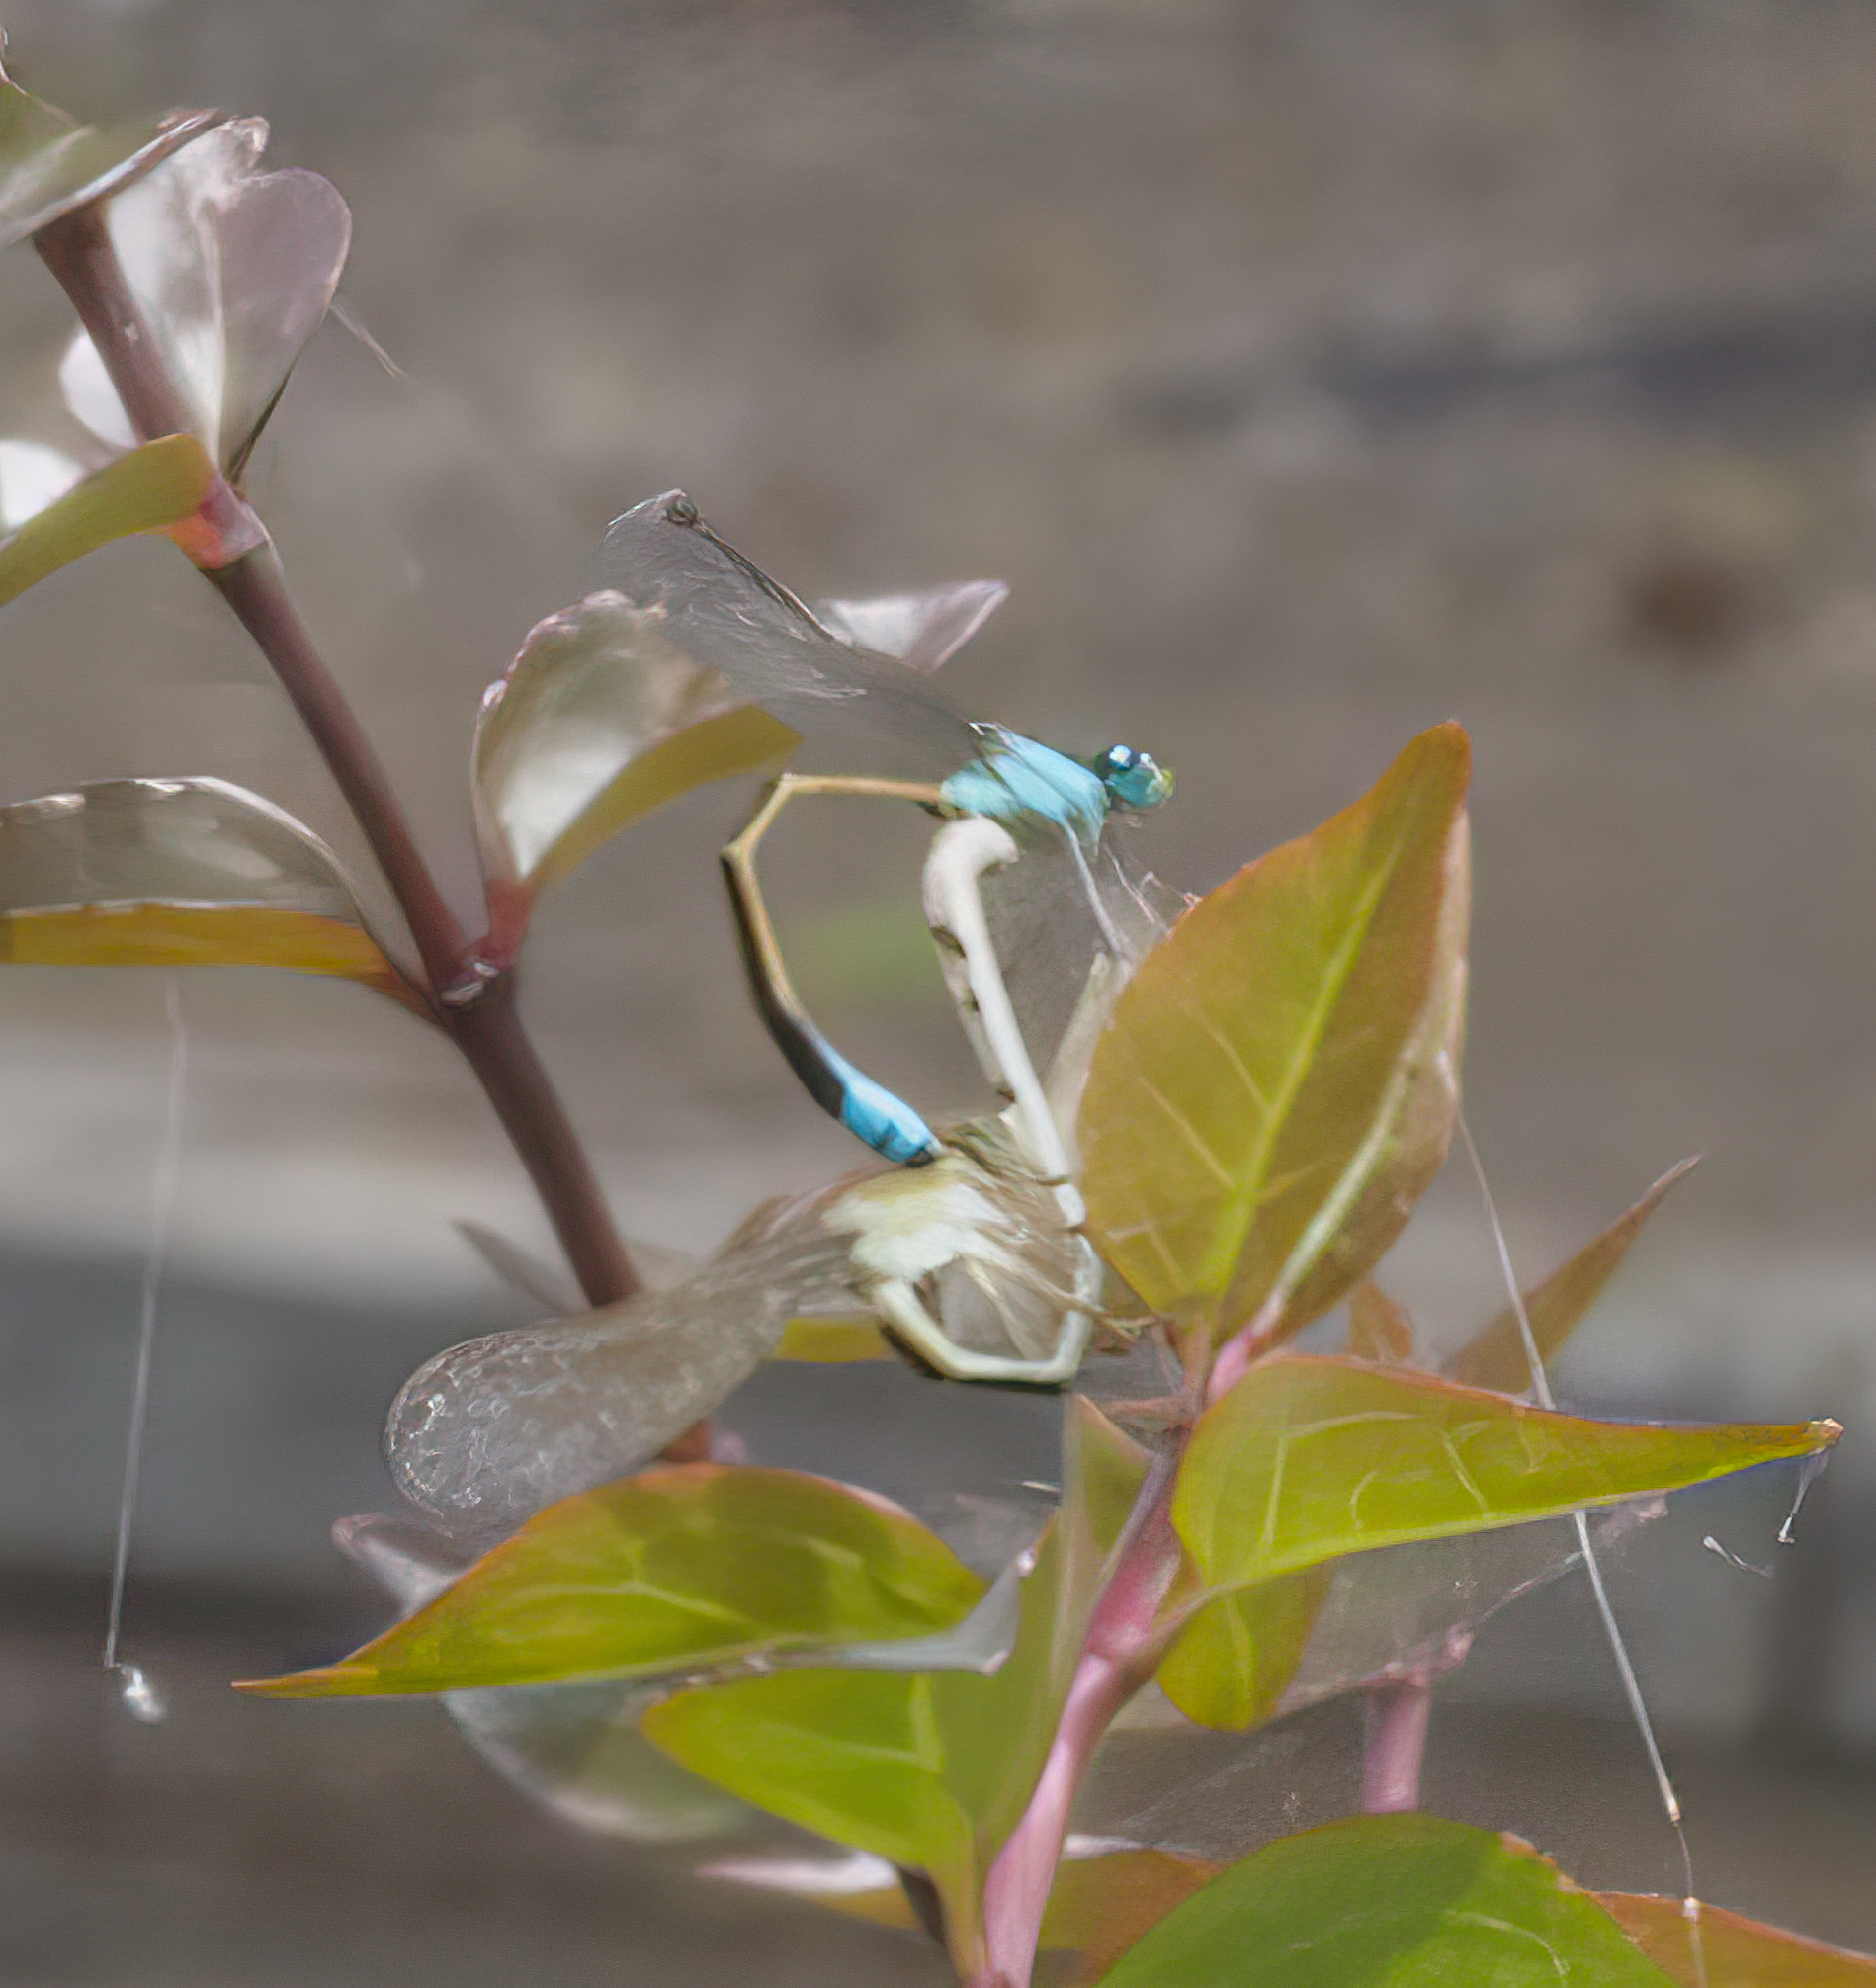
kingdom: Animalia
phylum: Arthropoda
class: Insecta
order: Odonata
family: Coenagrionidae
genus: Ischnura
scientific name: Ischnura fluviatilis
